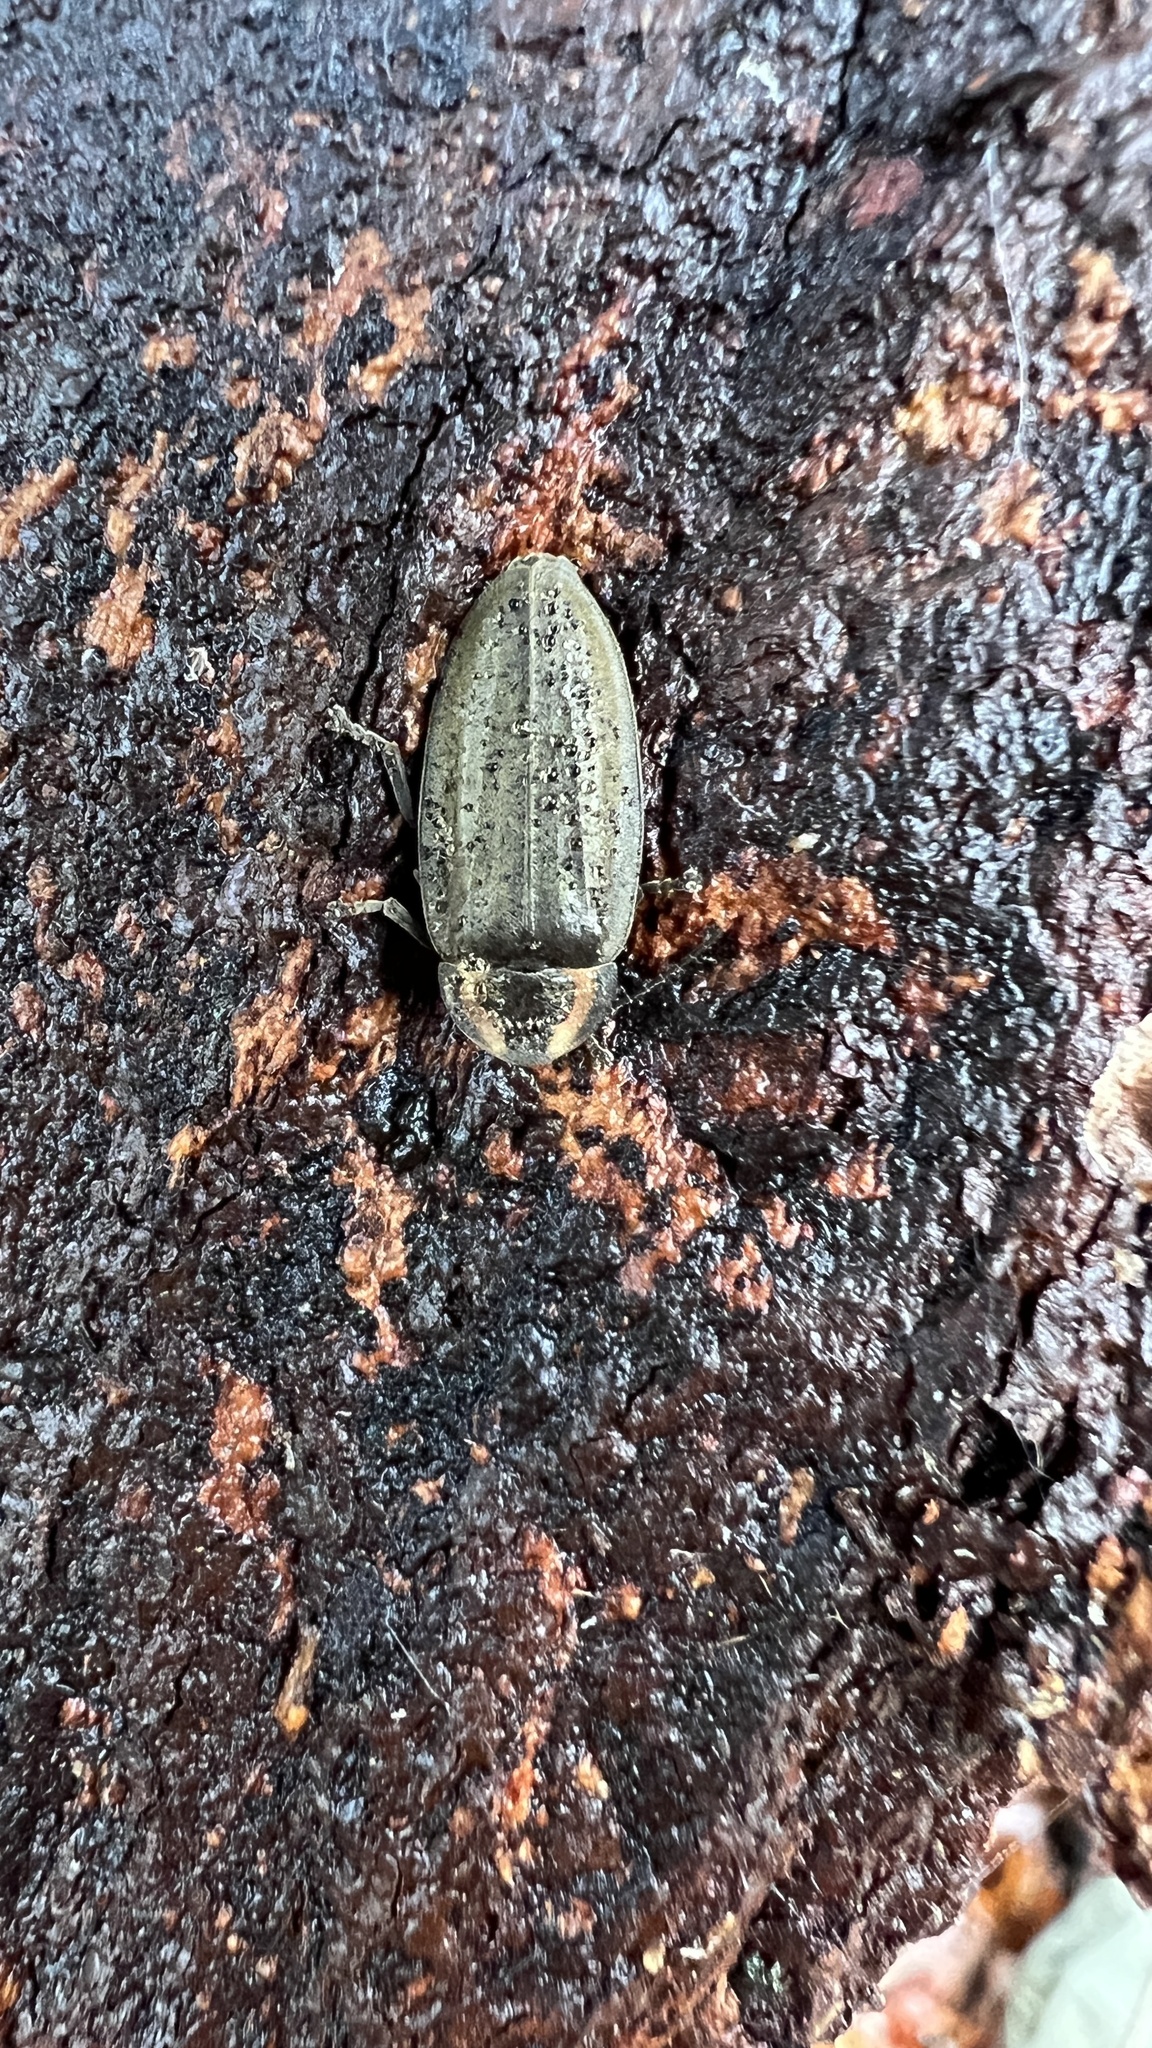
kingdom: Animalia
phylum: Arthropoda
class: Insecta
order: Coleoptera
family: Lampyridae
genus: Photinus
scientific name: Photinus corrusca
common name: Winter firefly
